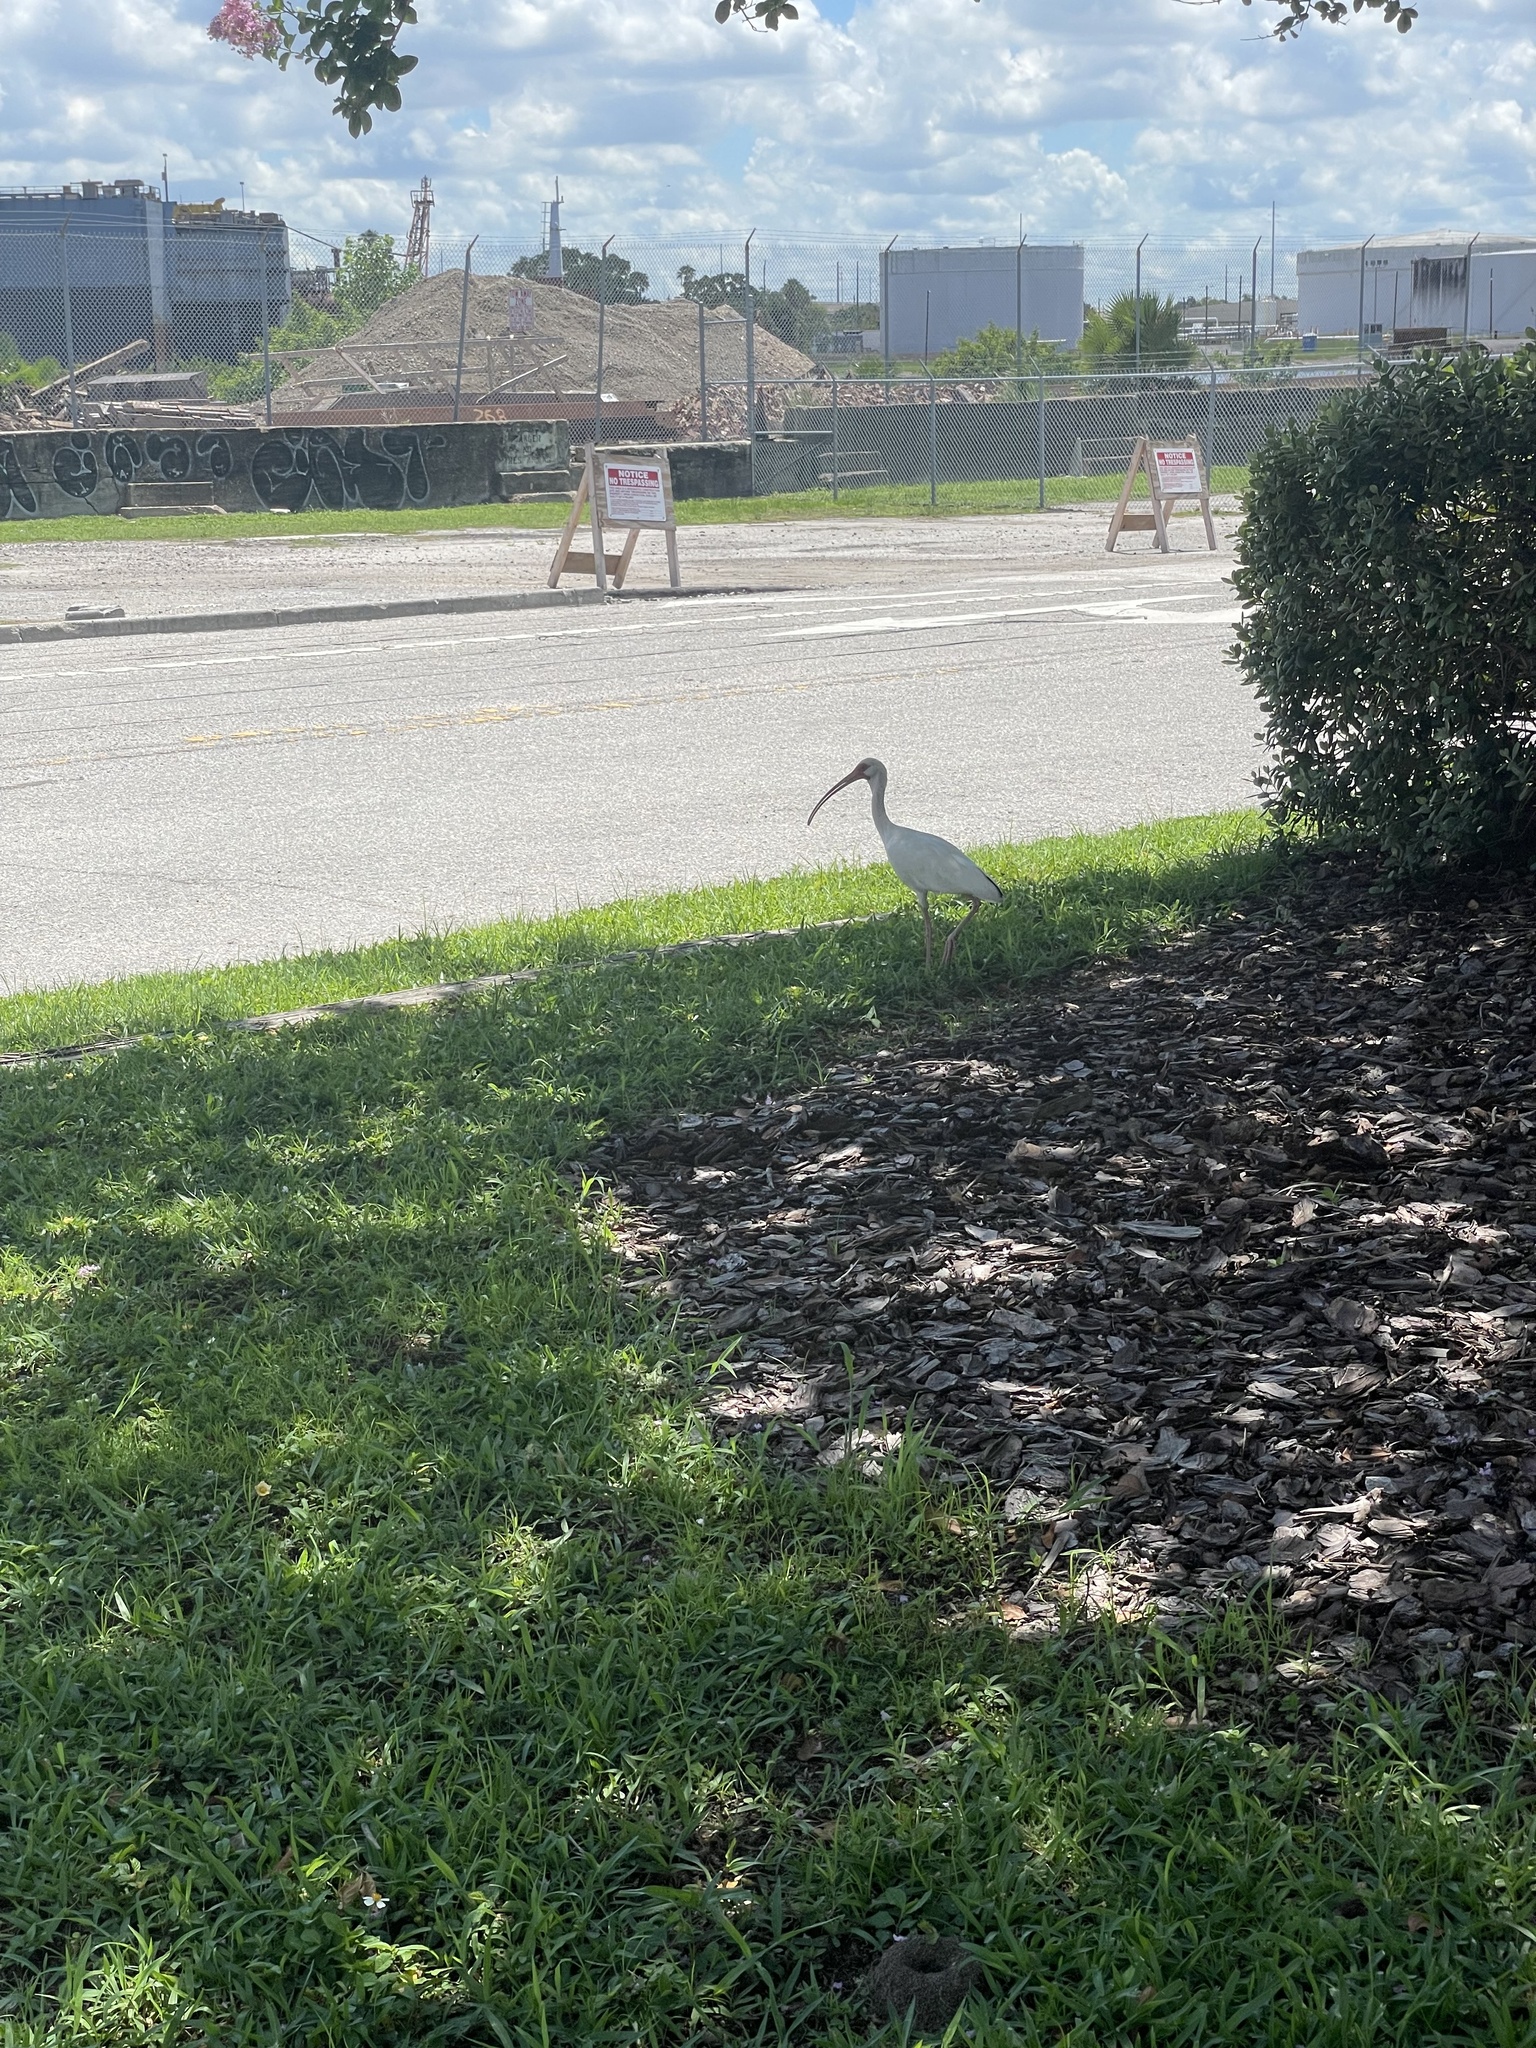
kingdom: Animalia
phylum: Chordata
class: Aves
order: Pelecaniformes
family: Threskiornithidae
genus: Eudocimus
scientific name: Eudocimus albus
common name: White ibis
